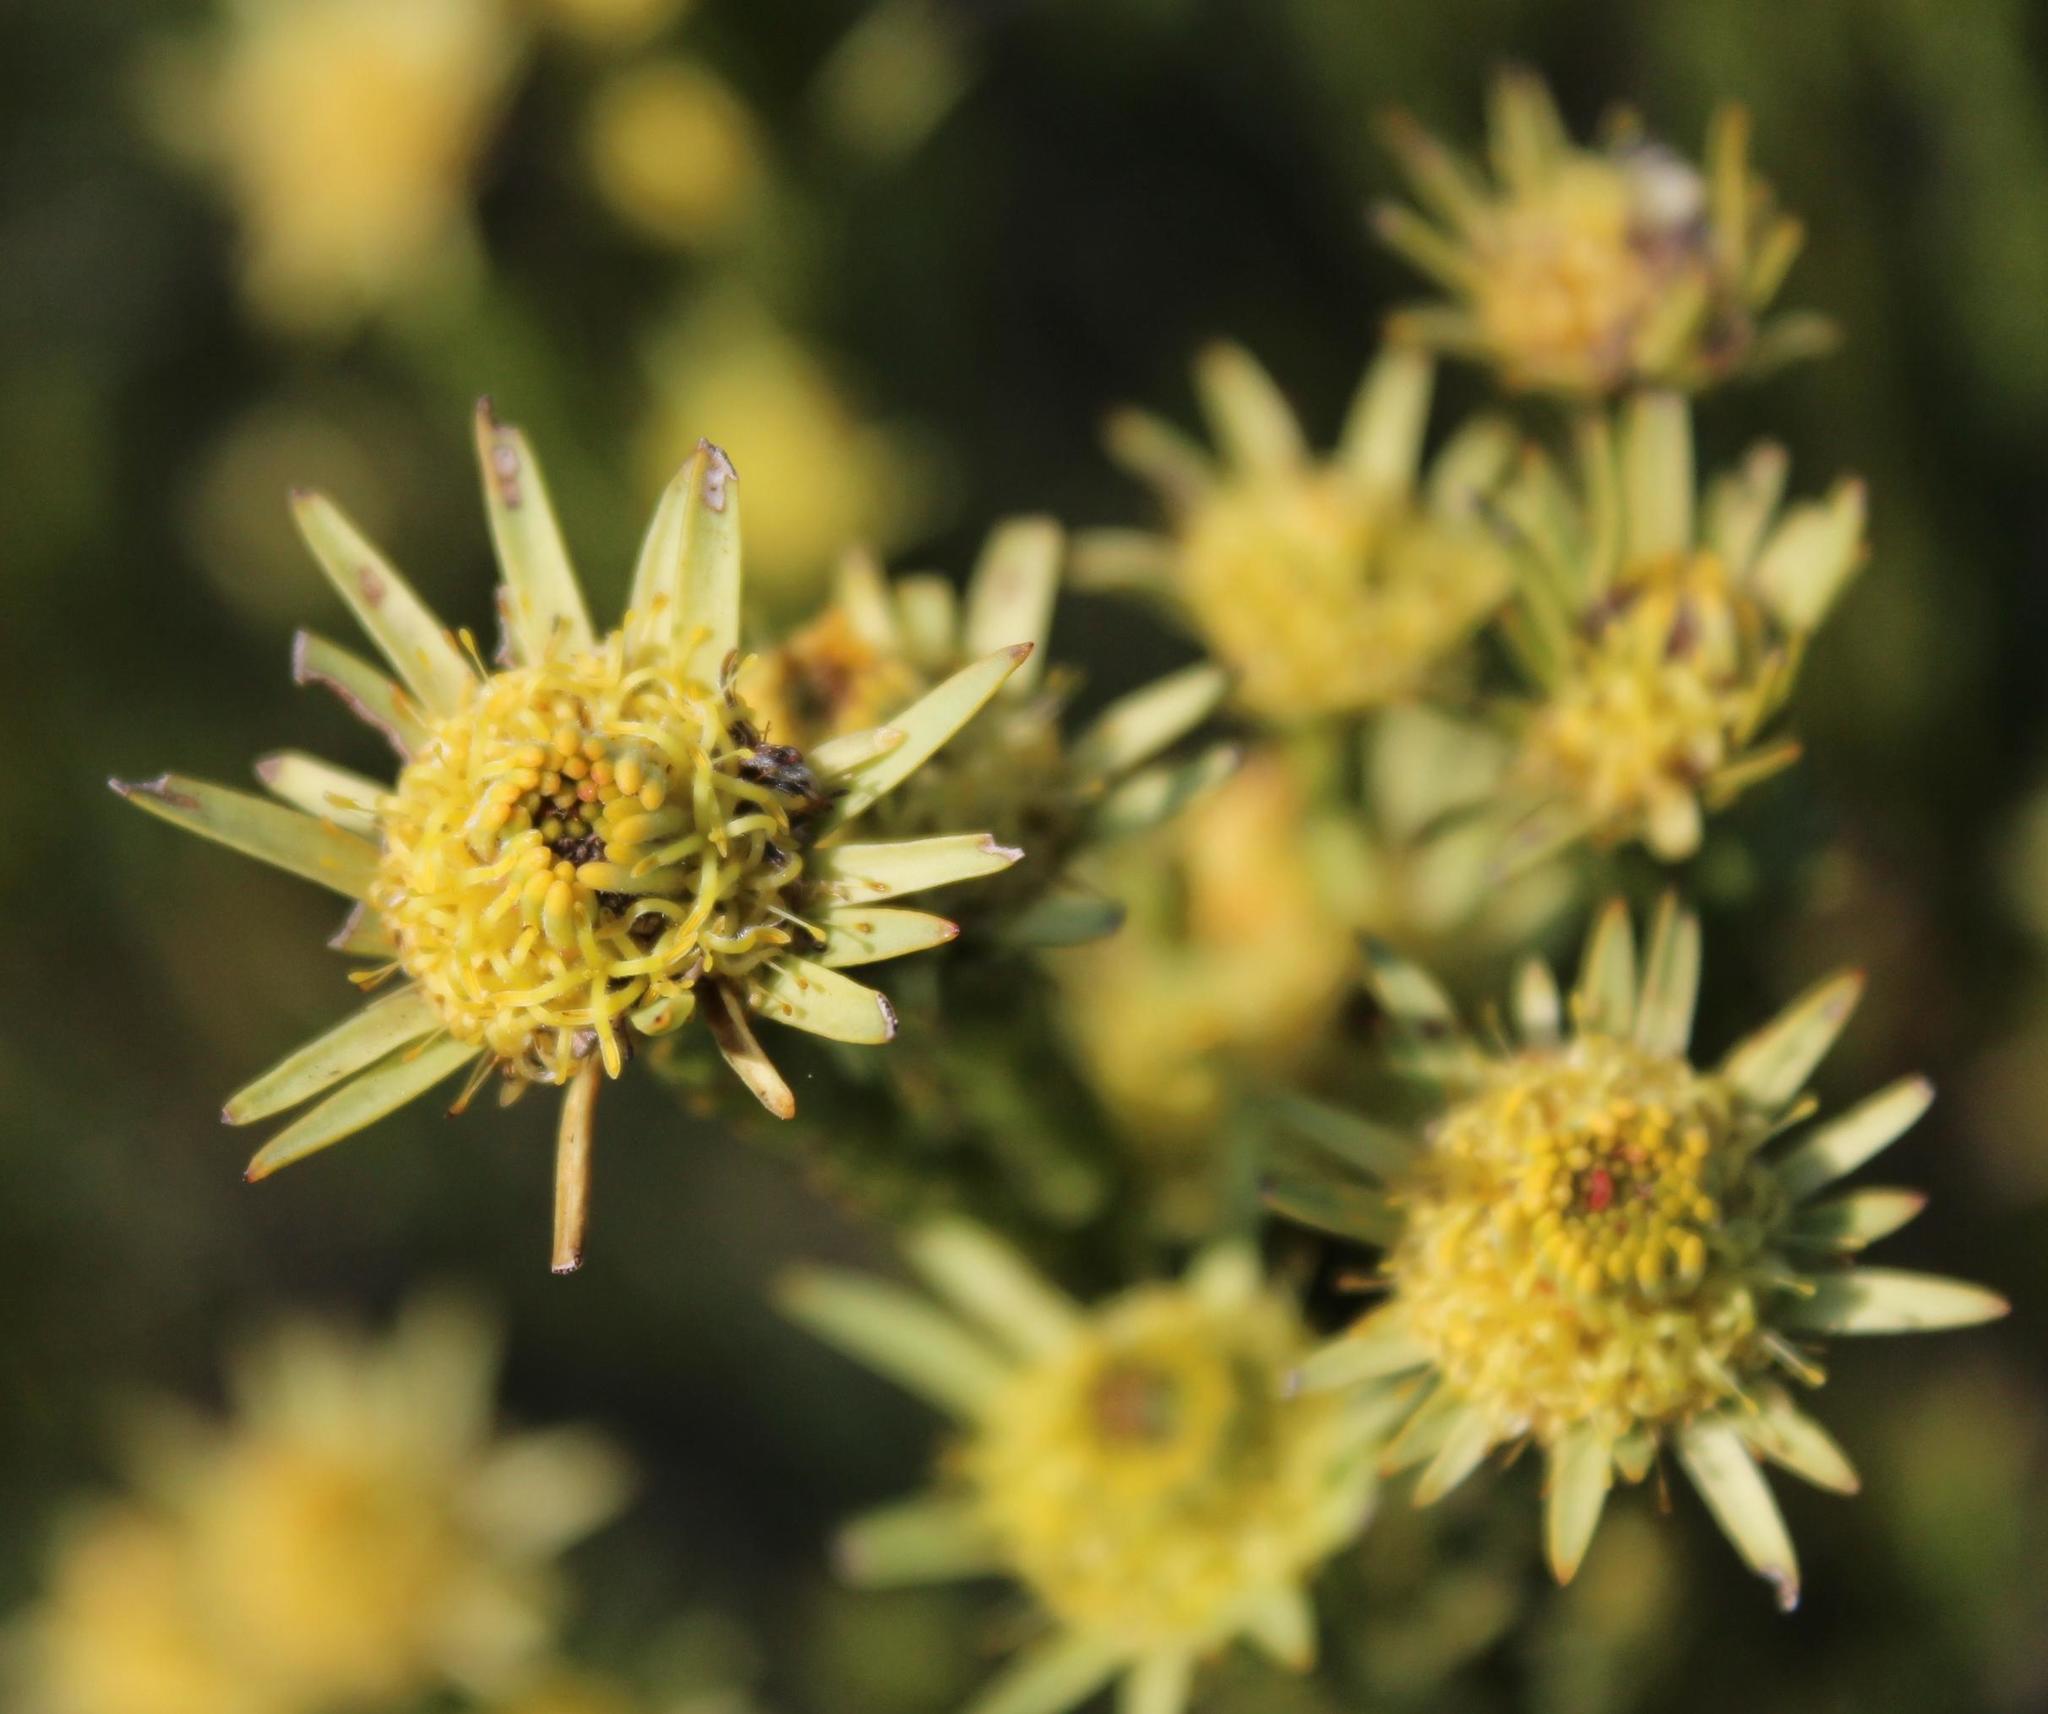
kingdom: Plantae
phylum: Tracheophyta
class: Magnoliopsida
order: Proteales
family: Proteaceae
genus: Leucadendron
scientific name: Leucadendron stellare
